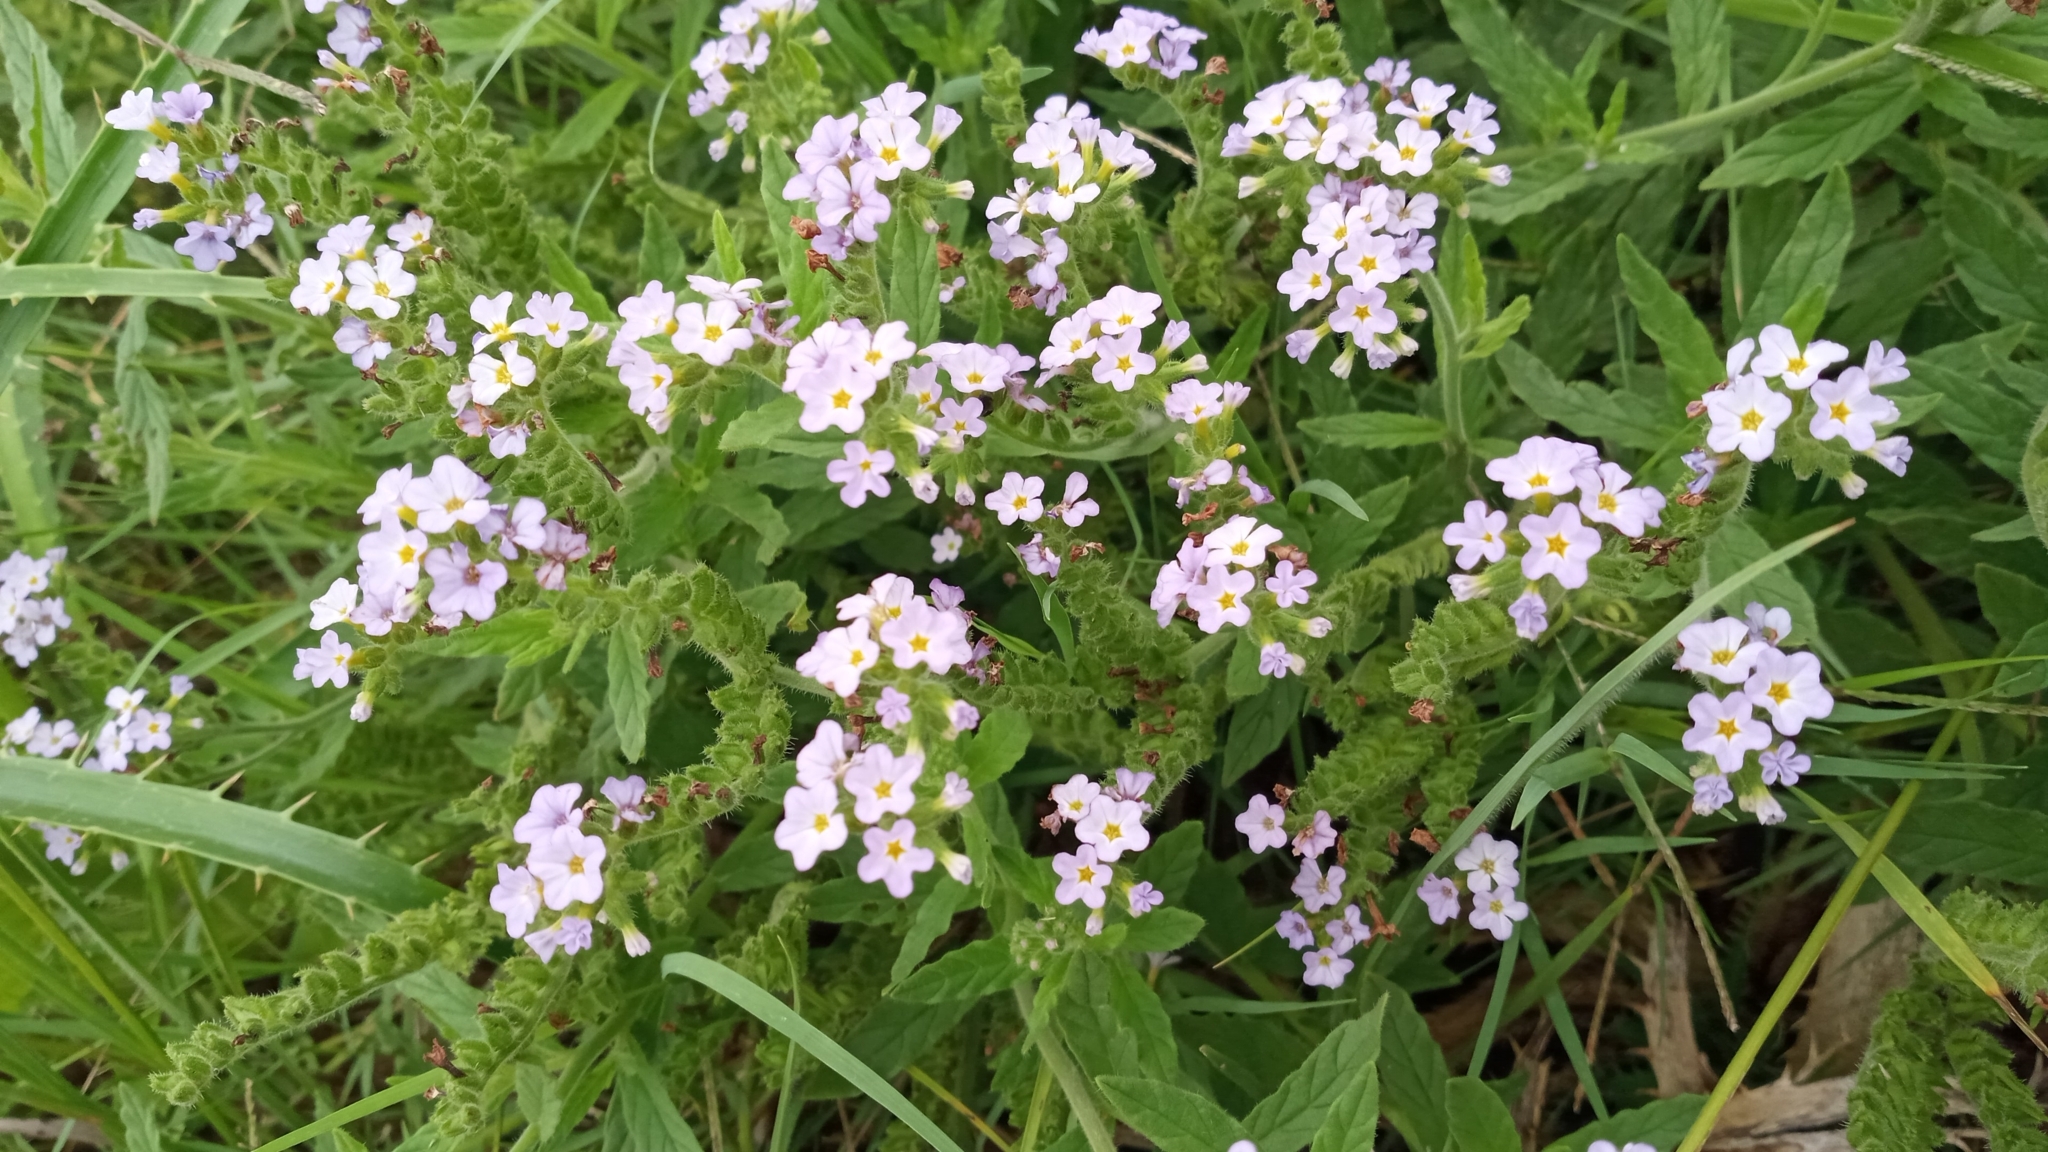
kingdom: Plantae
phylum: Tracheophyta
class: Magnoliopsida
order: Boraginales
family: Heliotropiaceae
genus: Heliotropium
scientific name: Heliotropium amplexicaule
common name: Clasping heliotrope
